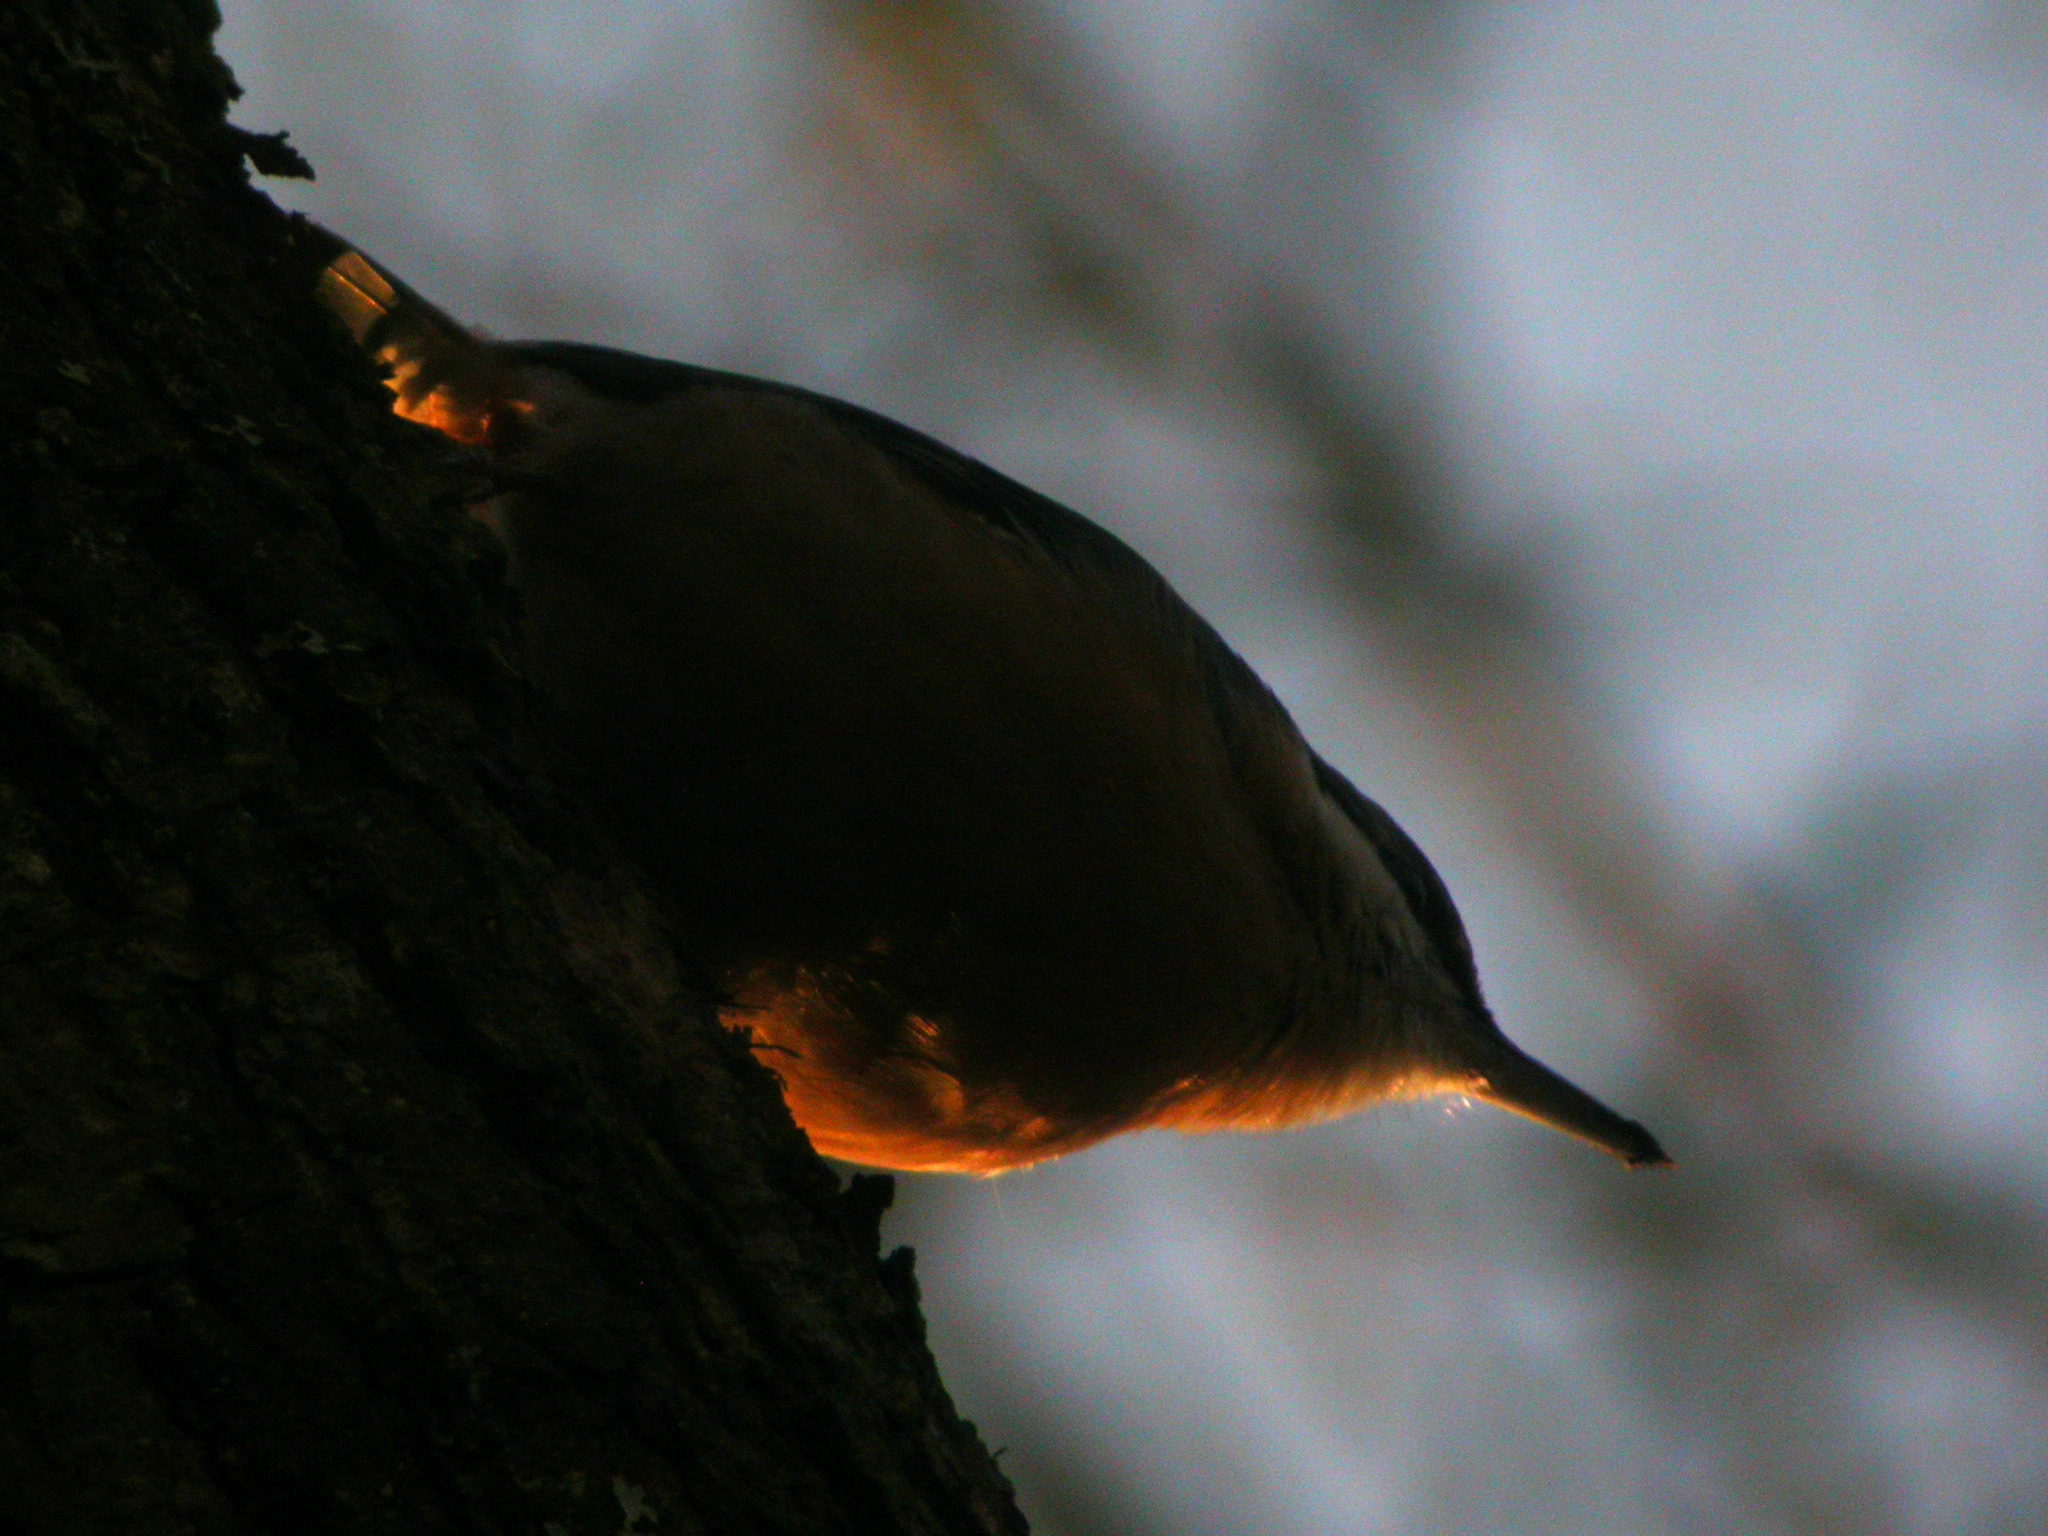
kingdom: Animalia
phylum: Chordata
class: Aves
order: Passeriformes
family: Sittidae
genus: Sitta
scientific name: Sitta europaea
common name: Eurasian nuthatch
